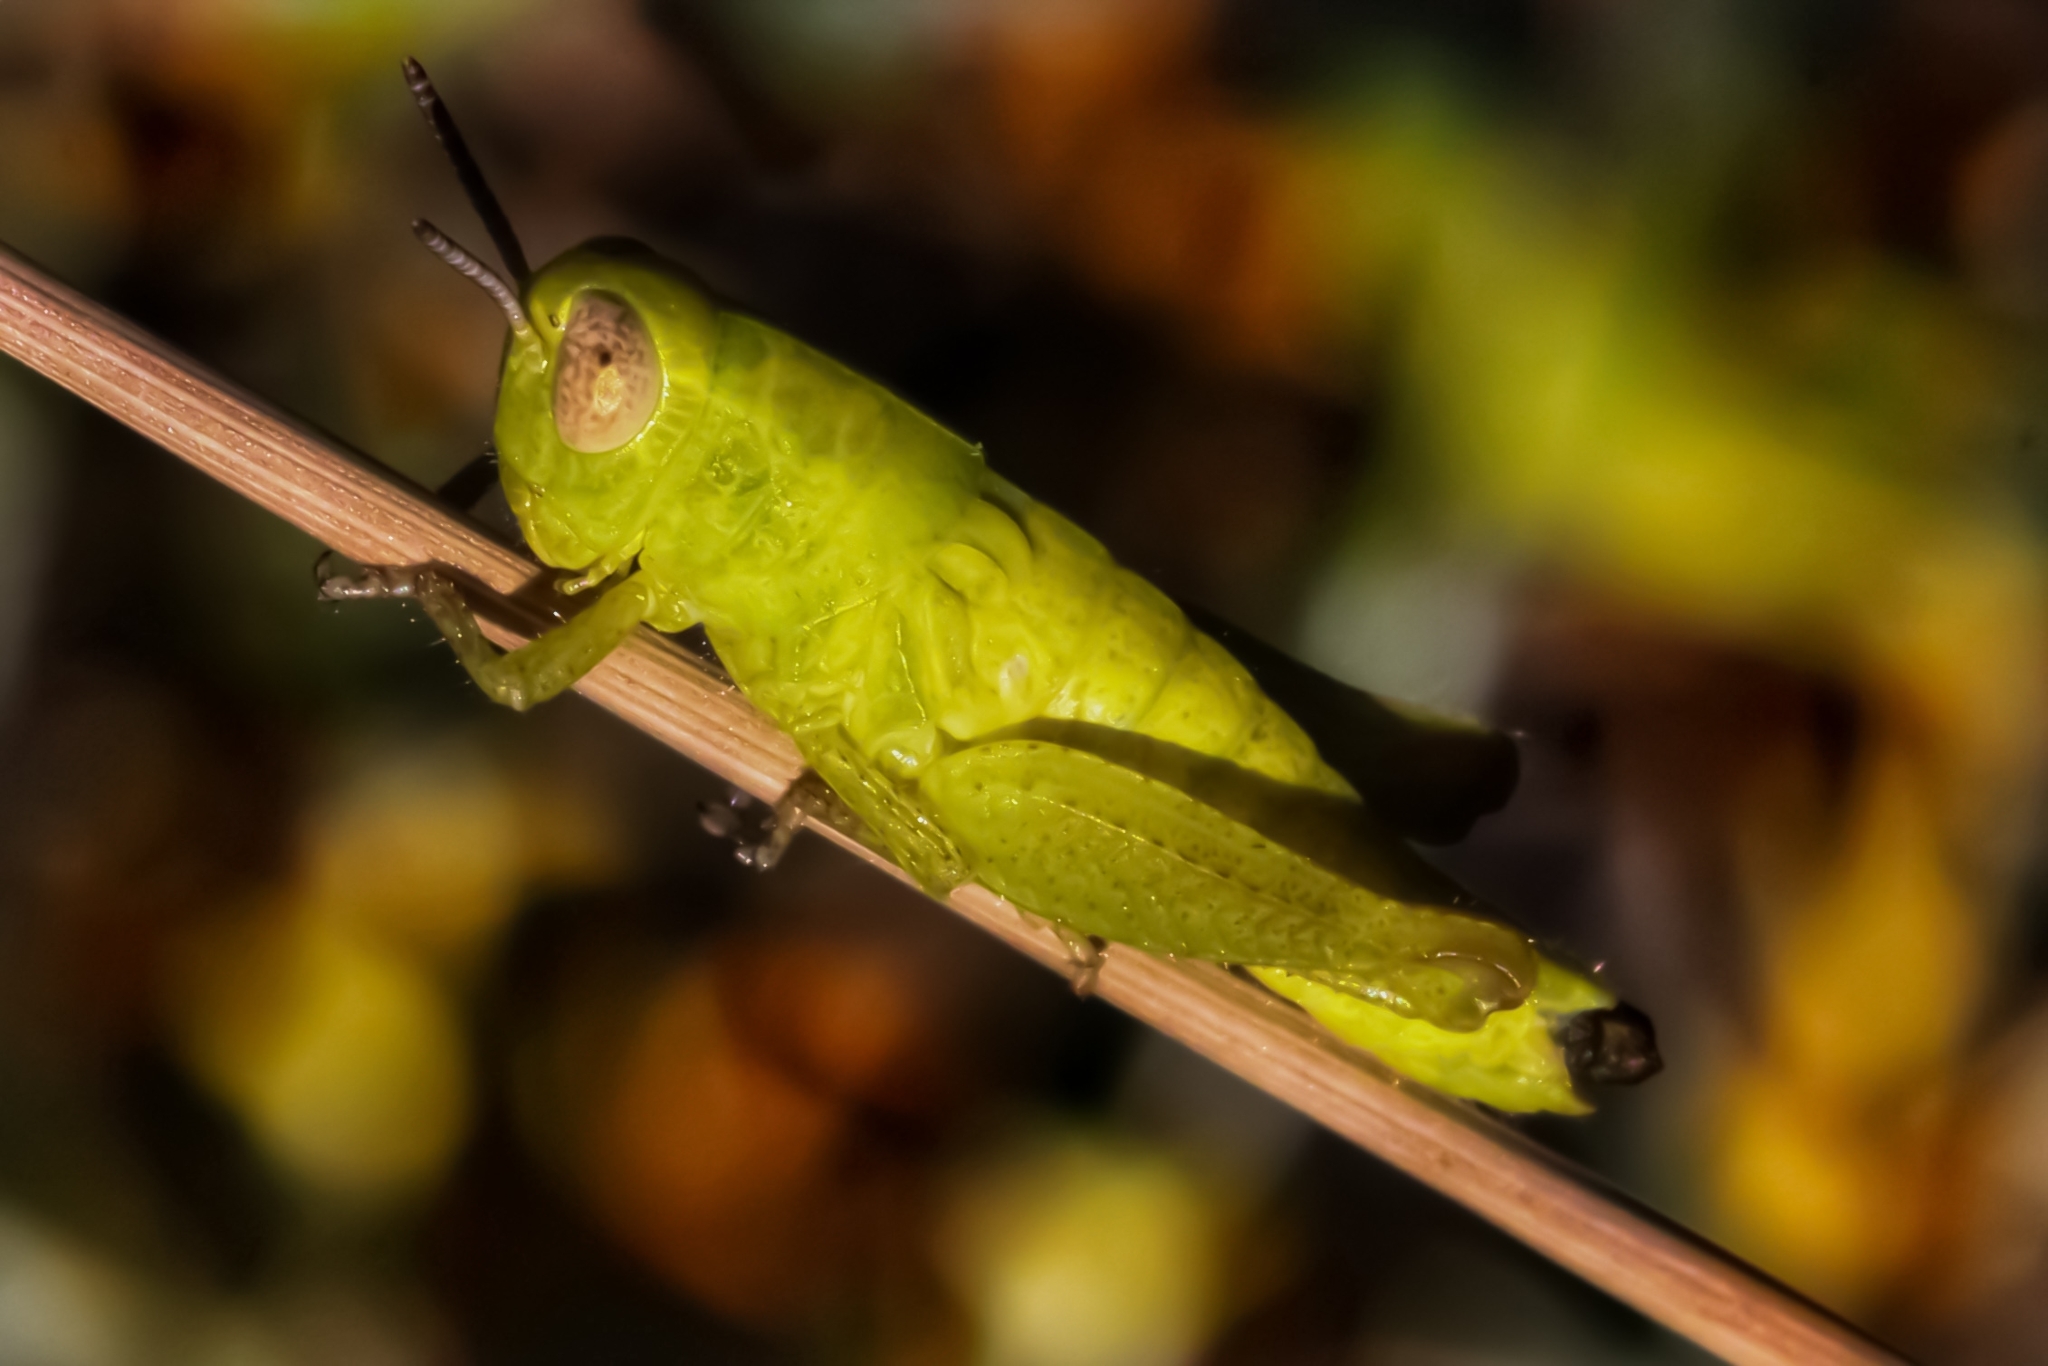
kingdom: Animalia
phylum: Arthropoda
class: Insecta
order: Orthoptera
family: Acrididae
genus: Pezotettix
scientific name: Pezotettix giornae
